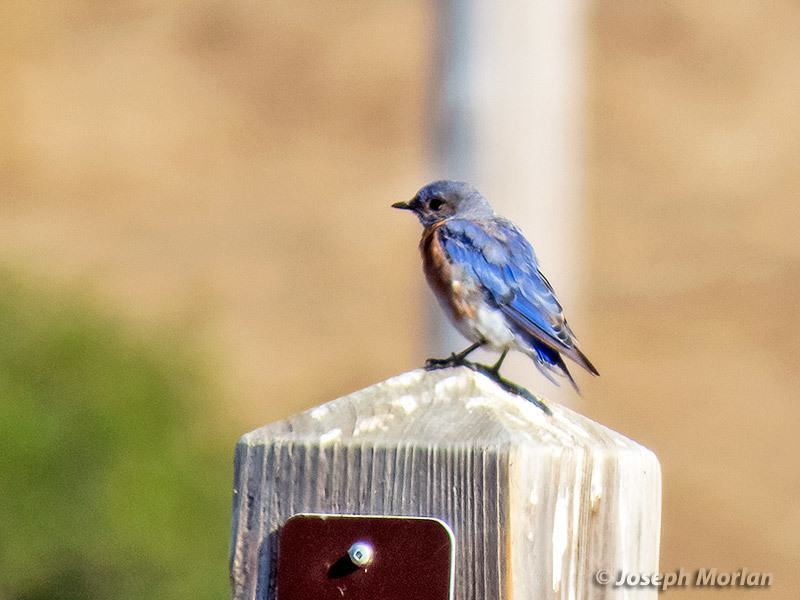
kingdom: Animalia
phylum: Chordata
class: Aves
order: Passeriformes
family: Turdidae
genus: Sialia
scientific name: Sialia mexicana
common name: Western bluebird
